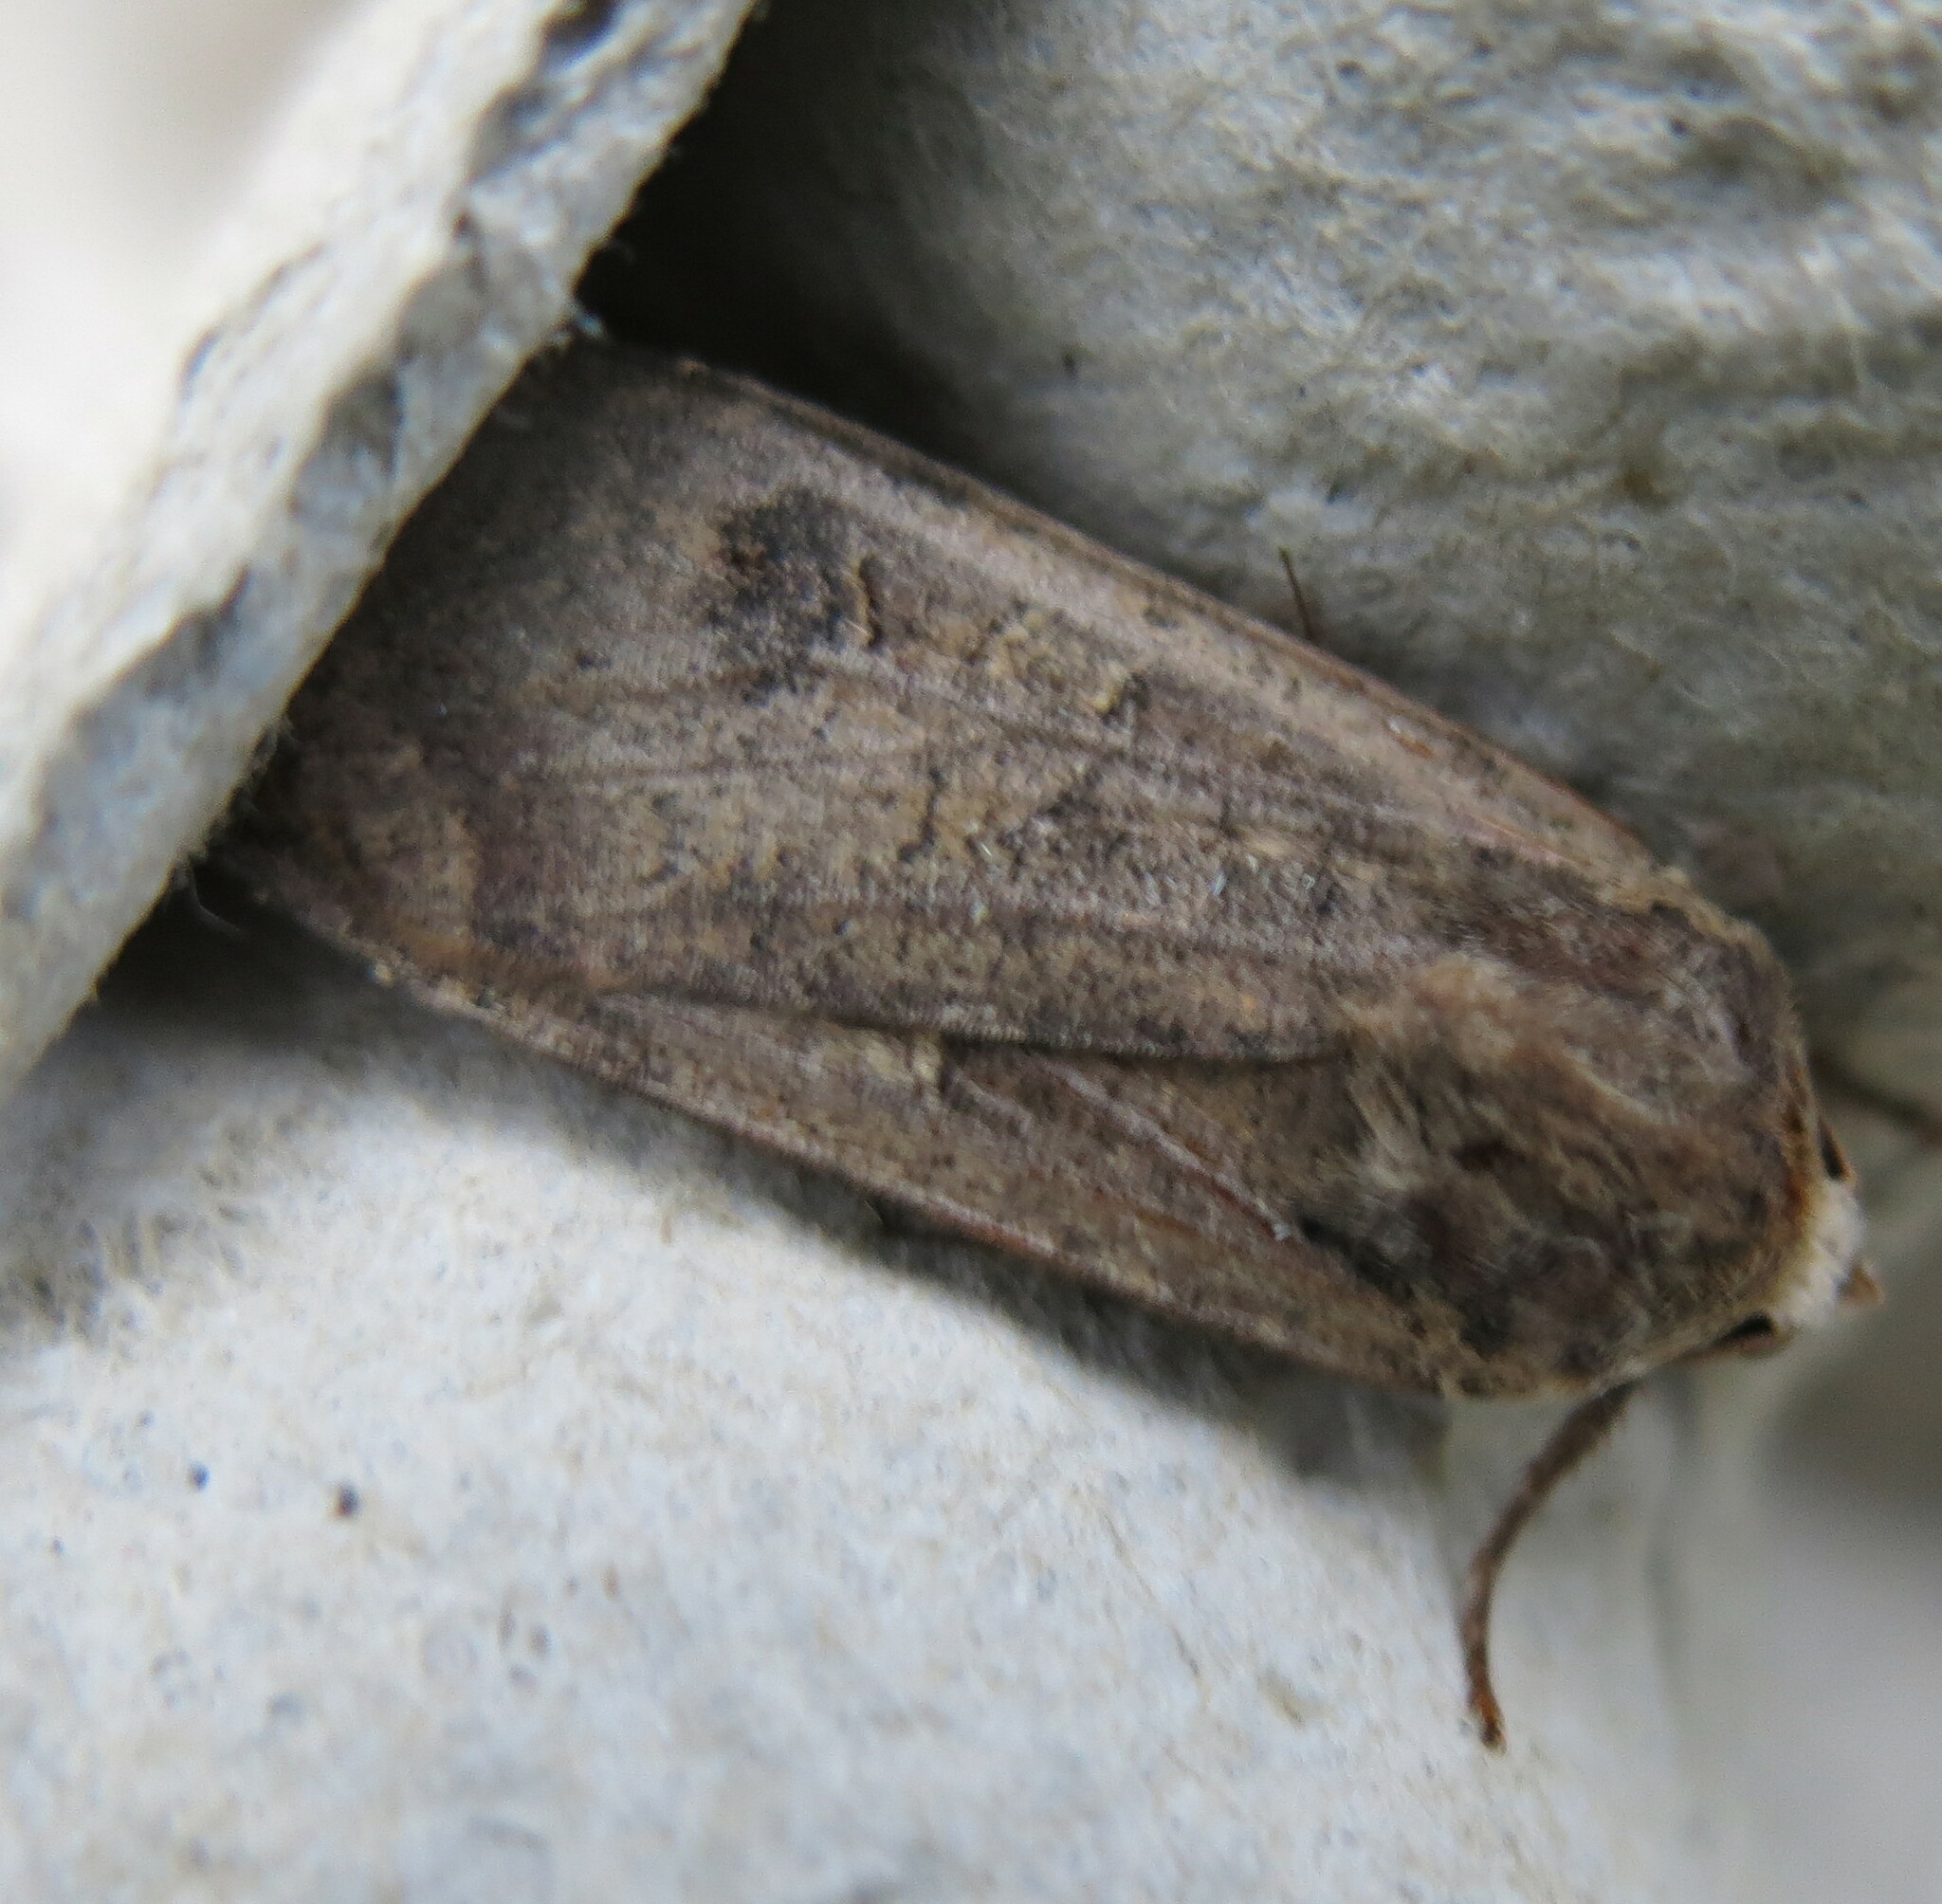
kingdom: Animalia
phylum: Arthropoda
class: Insecta
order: Lepidoptera
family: Noctuidae
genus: Noctua
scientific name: Noctua pronuba
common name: Large yellow underwing
